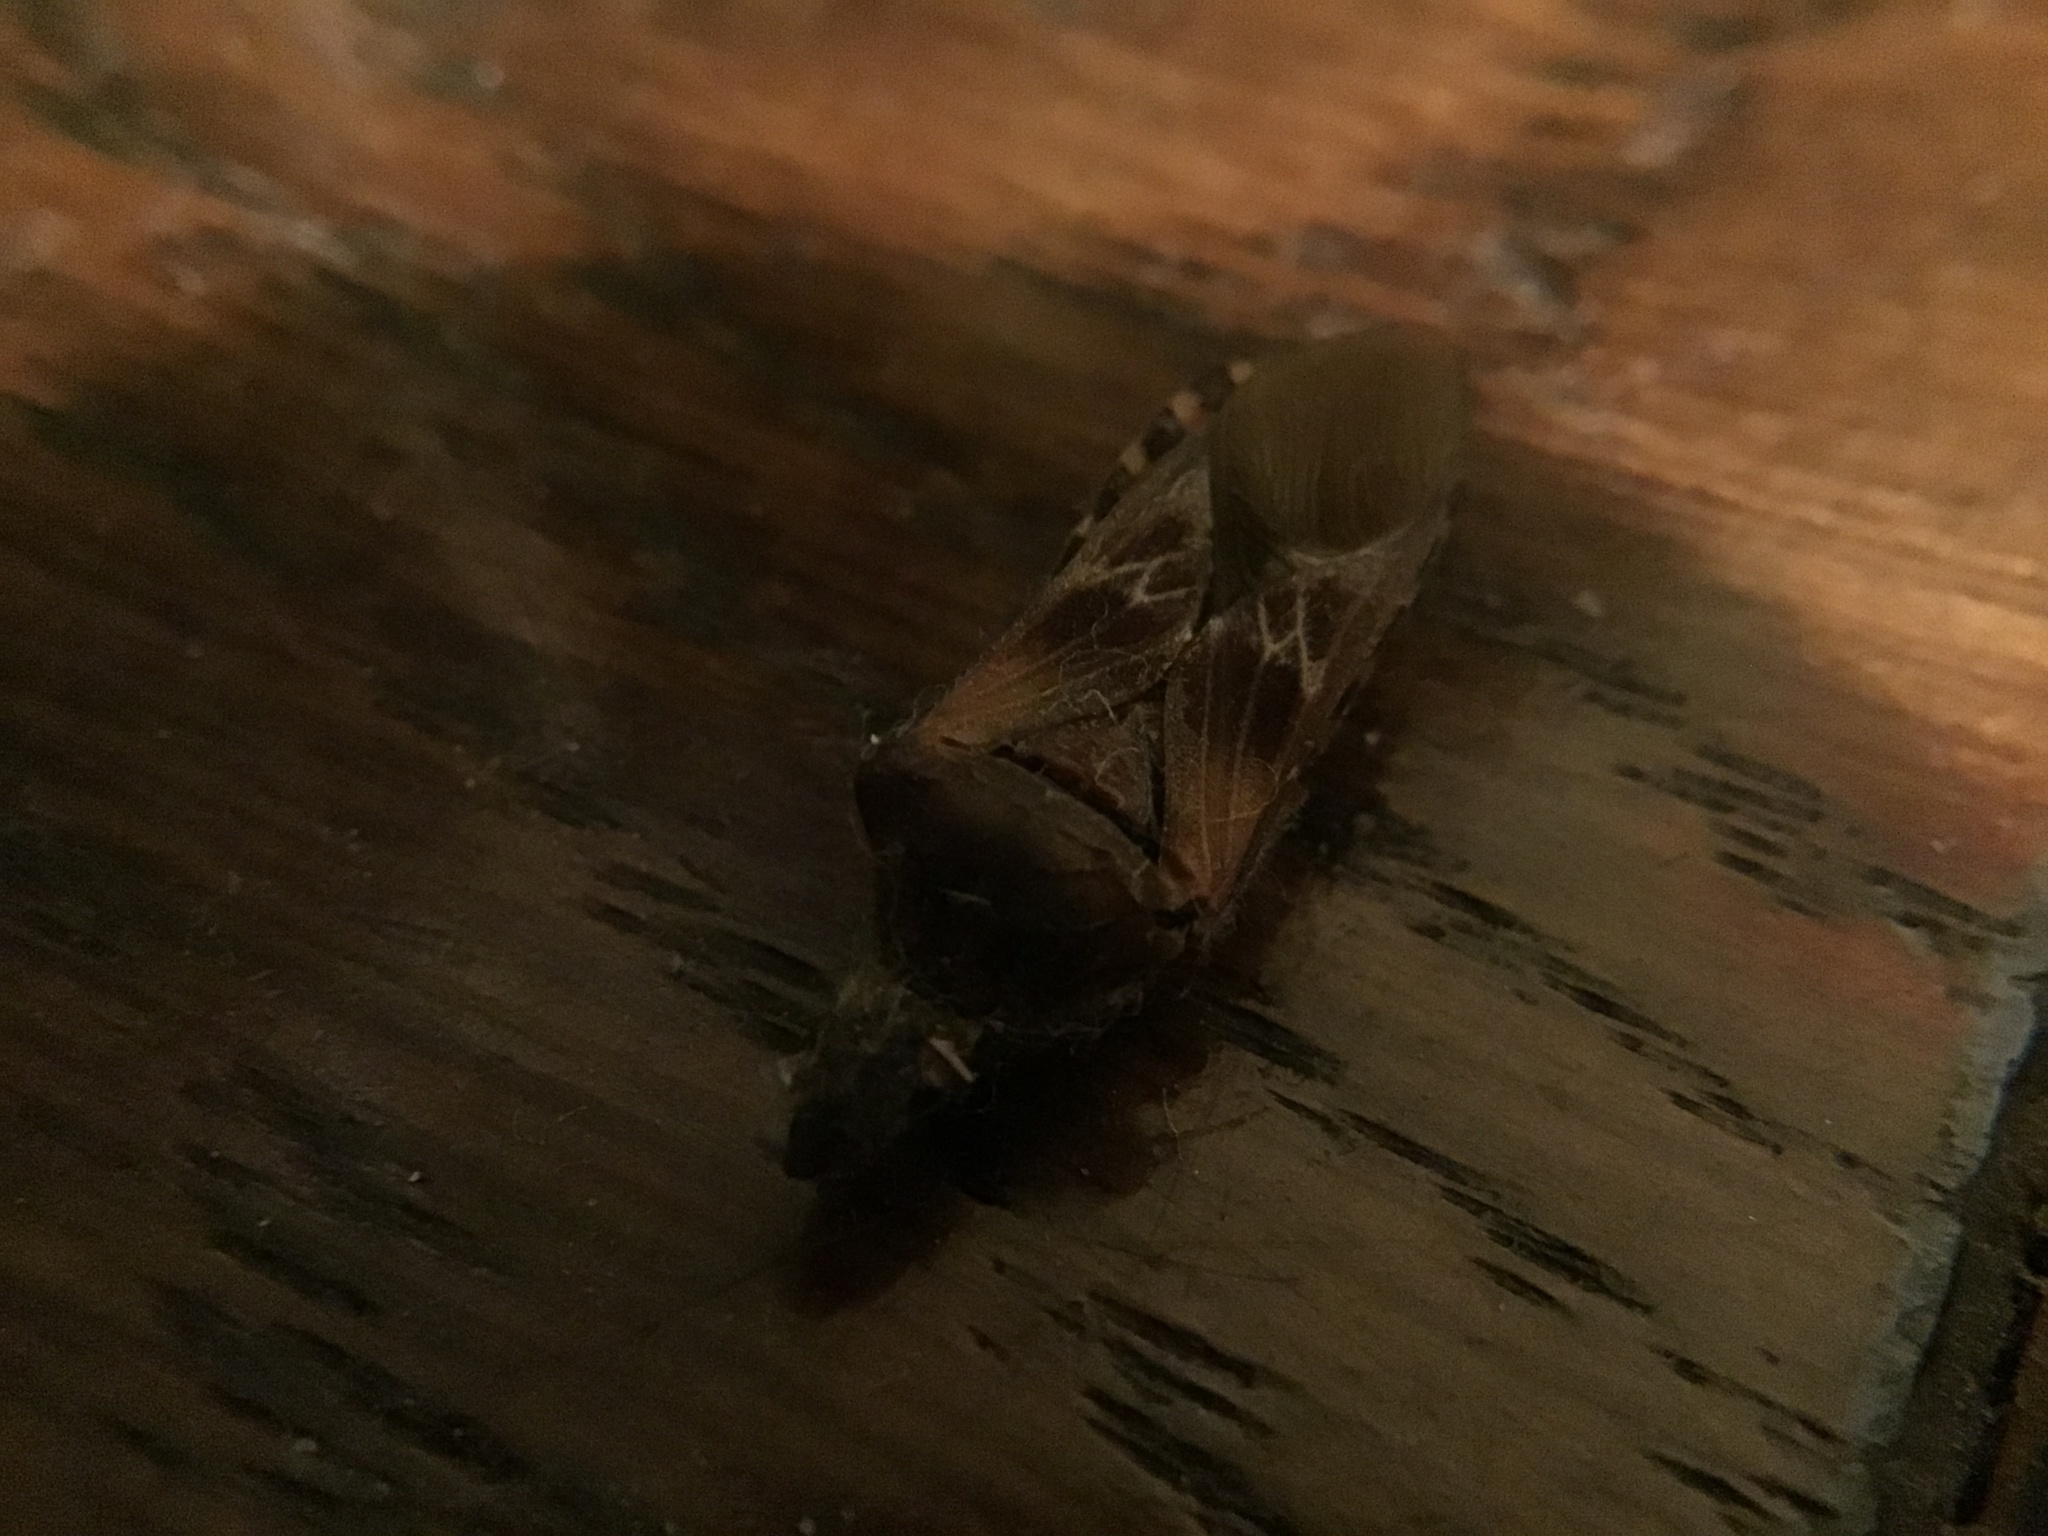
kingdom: Animalia
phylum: Arthropoda
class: Insecta
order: Hemiptera
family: Coreidae
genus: Leptoglossus
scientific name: Leptoglossus occidentalis
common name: Western conifer-seed bug
